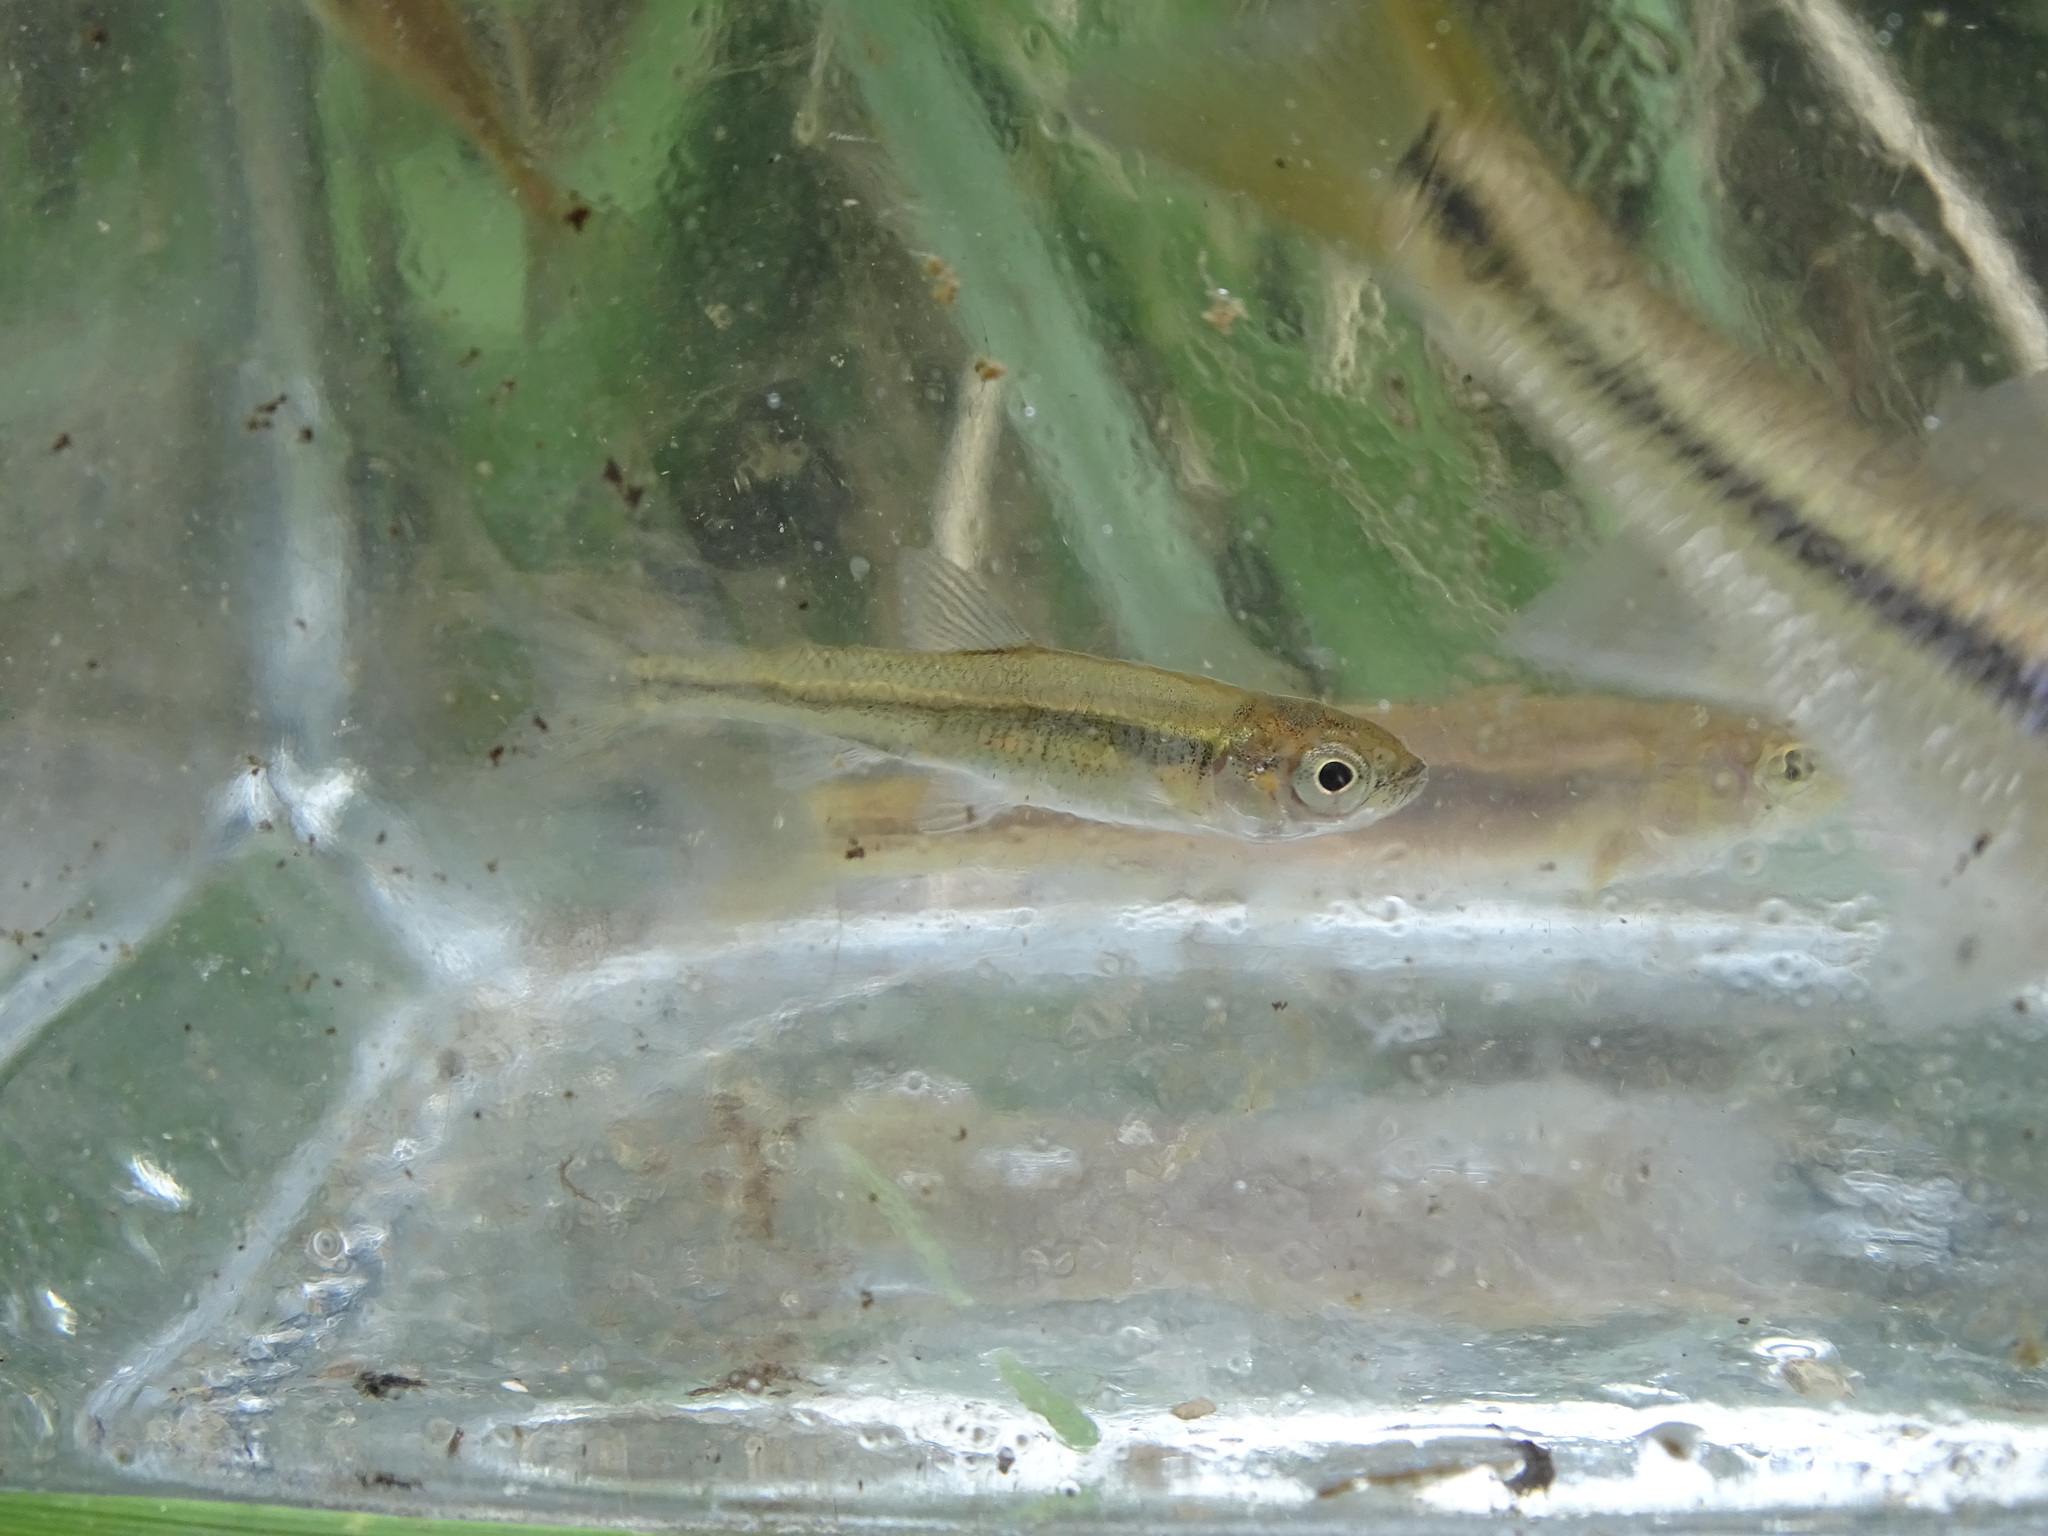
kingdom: Animalia
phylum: Chordata
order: Cypriniformes
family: Cyprinidae
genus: Luxilus
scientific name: Luxilus cornutus
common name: Common shiner
